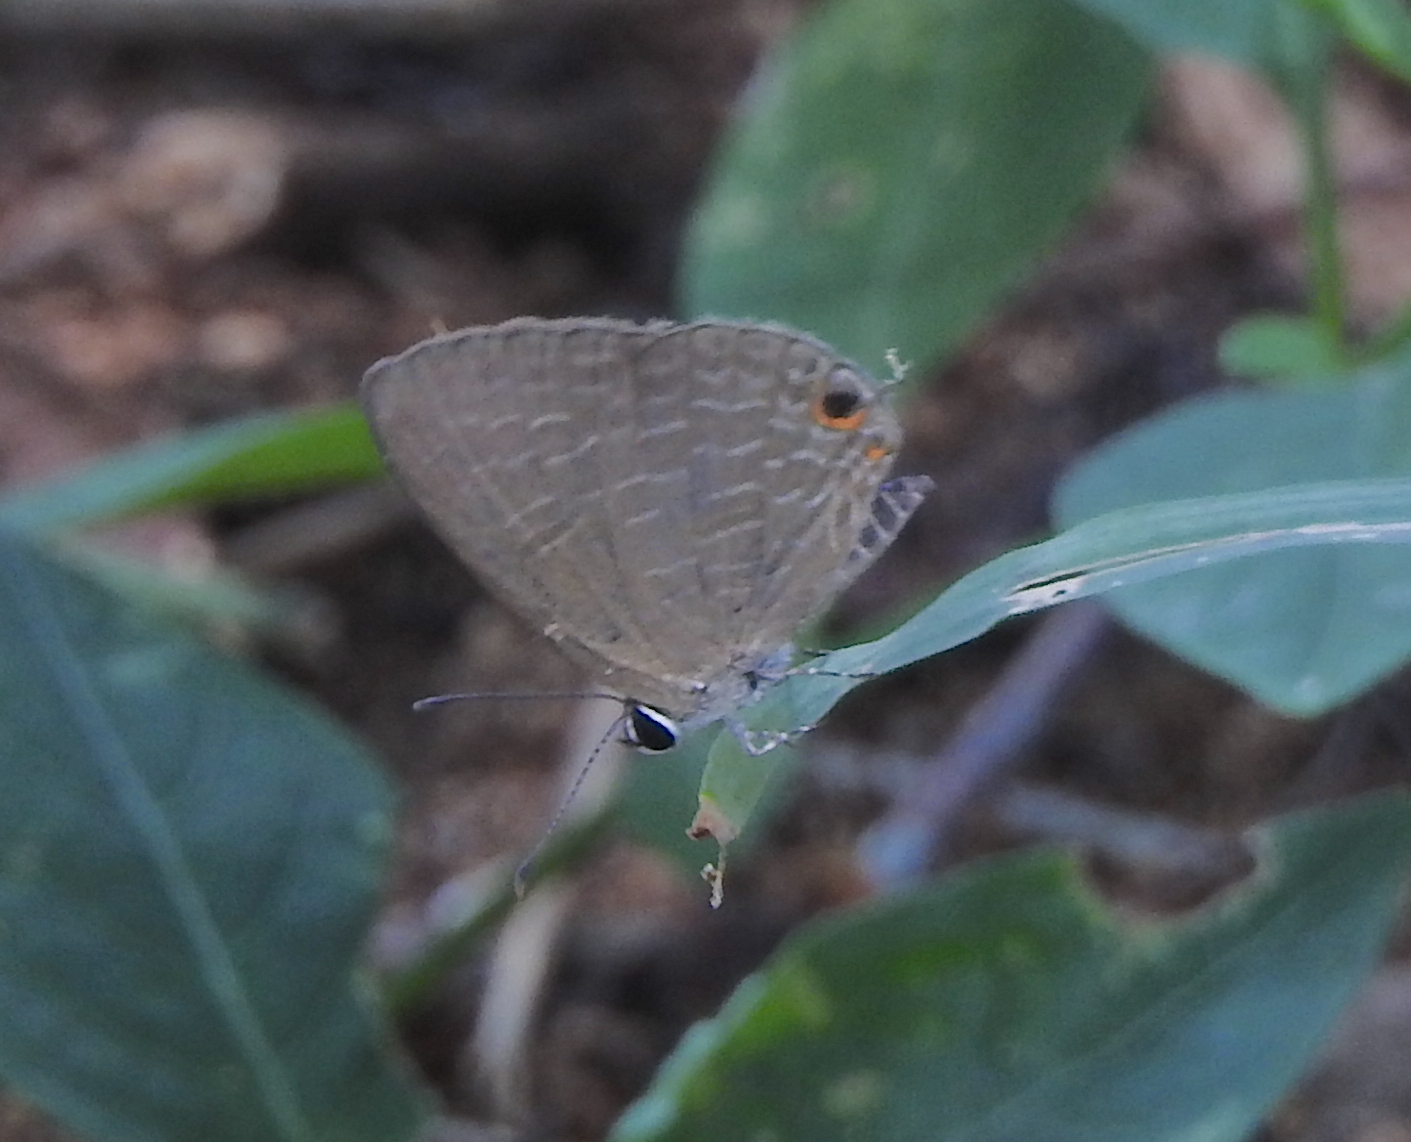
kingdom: Animalia
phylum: Arthropoda
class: Insecta
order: Lepidoptera
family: Lycaenidae
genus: Jamides
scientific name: Jamides bochus
